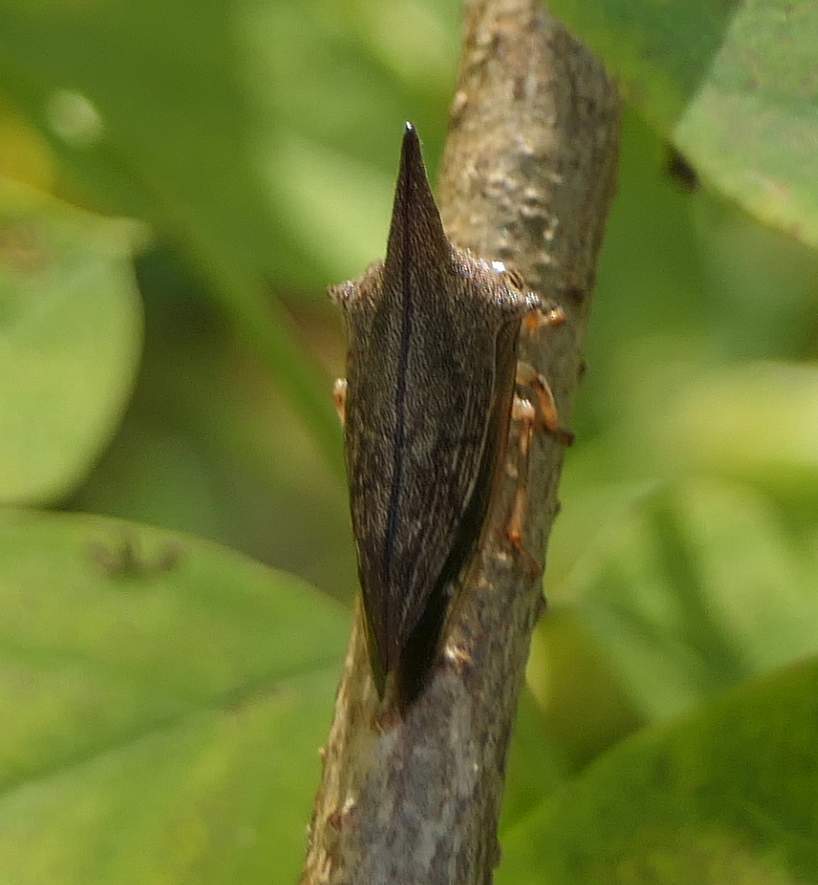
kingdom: Animalia
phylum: Arthropoda
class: Insecta
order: Hemiptera
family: Membracidae
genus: Thelia
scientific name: Thelia bimaculata
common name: Locust treehopper
